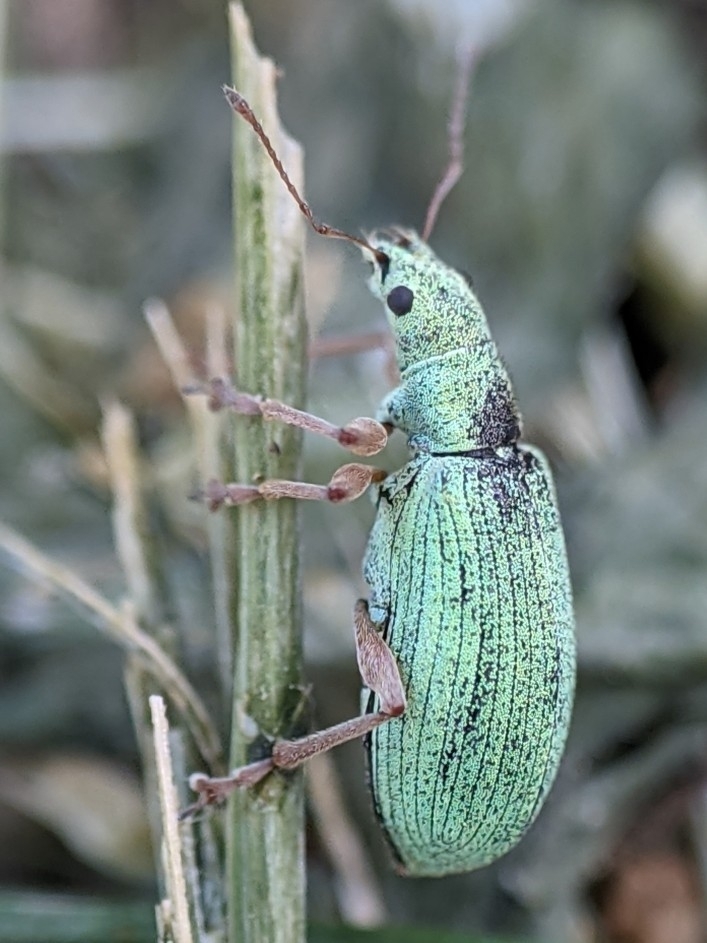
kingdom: Animalia
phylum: Arthropoda
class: Insecta
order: Coleoptera
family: Curculionidae
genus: Polydrusus
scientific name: Polydrusus impressifrons
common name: Weevil
